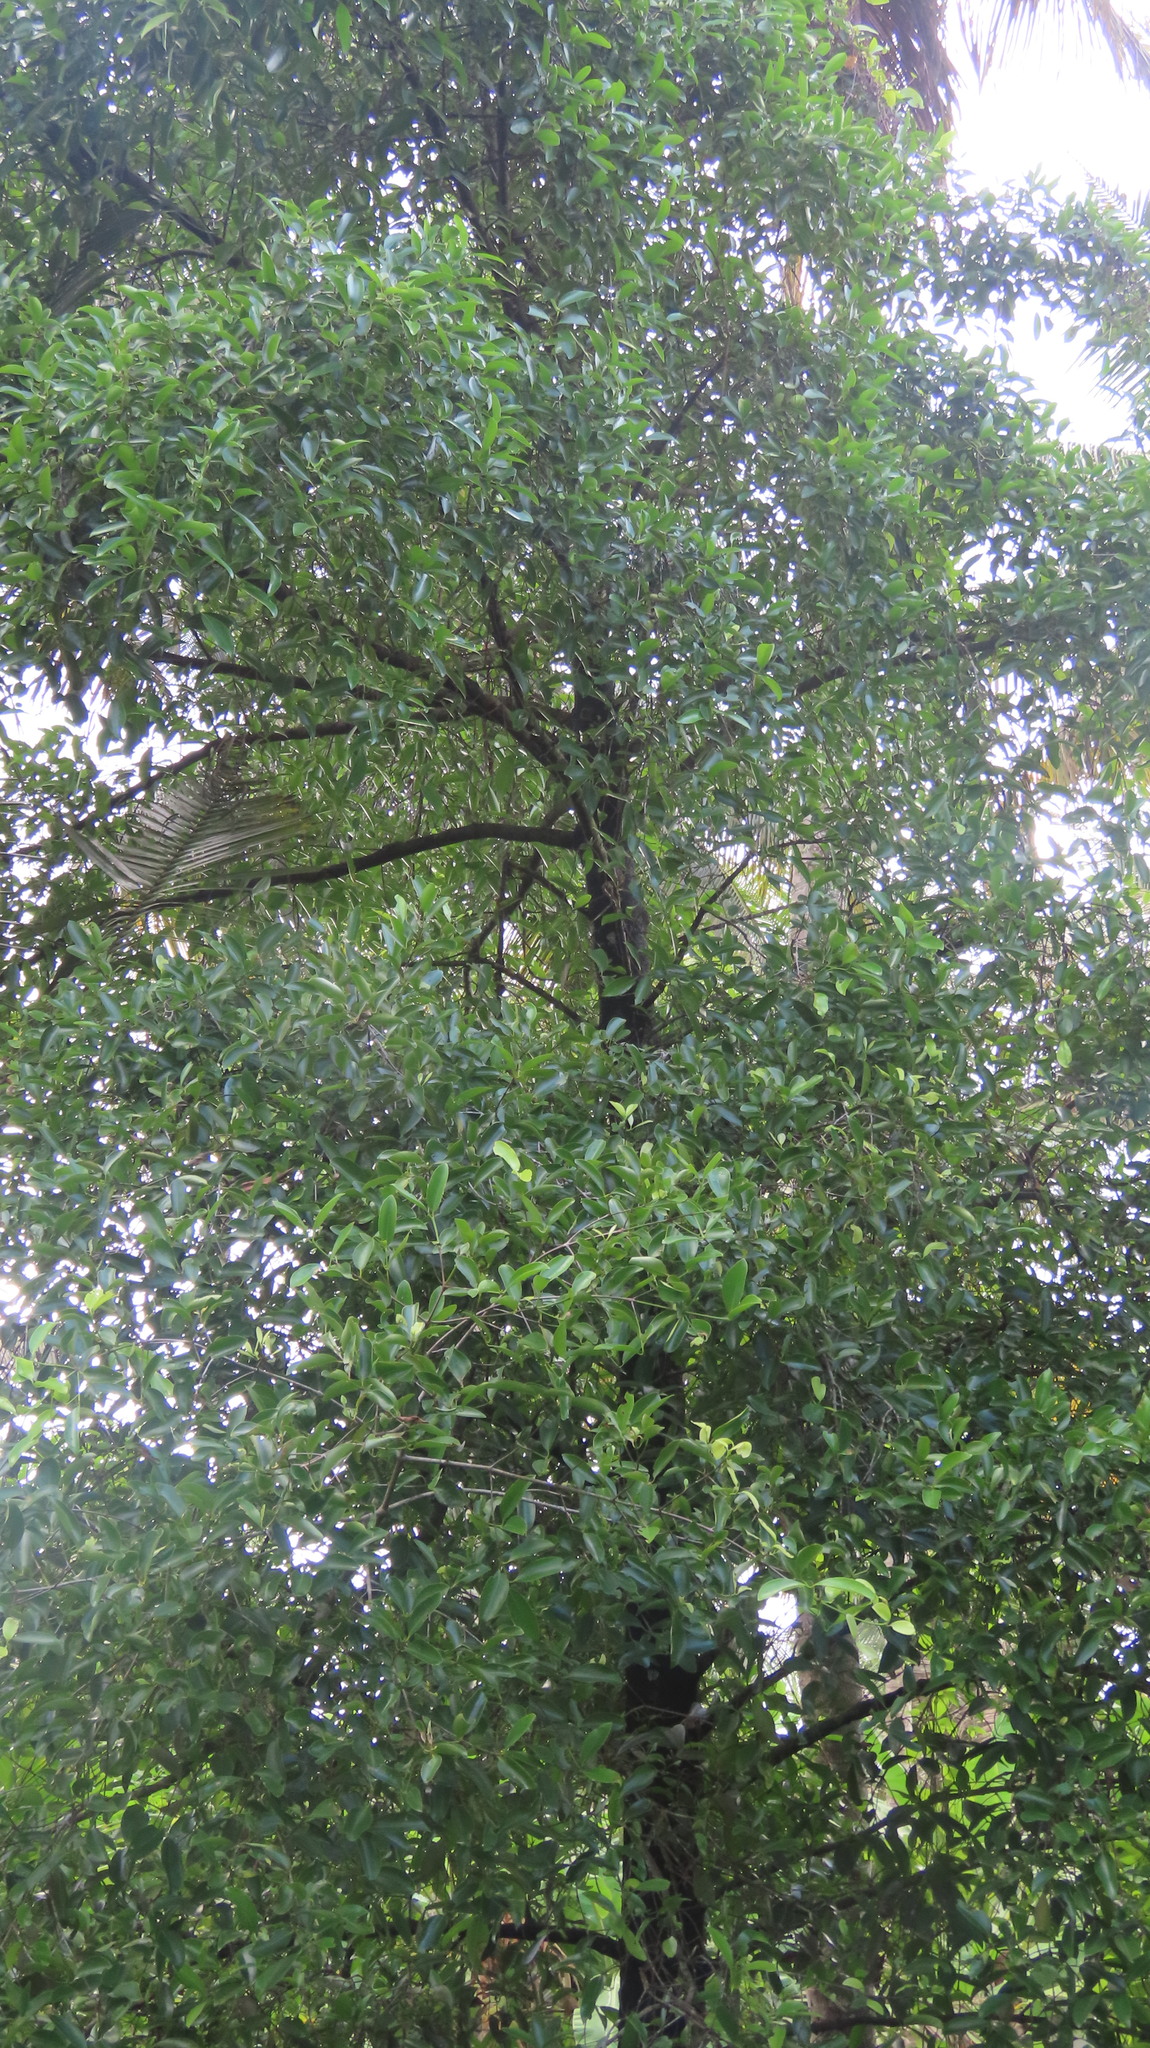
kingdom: Plantae
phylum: Tracheophyta
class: Magnoliopsida
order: Malpighiales
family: Clusiaceae
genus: Garcinia
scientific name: Garcinia gummi-gutta
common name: Malabar tamarind
